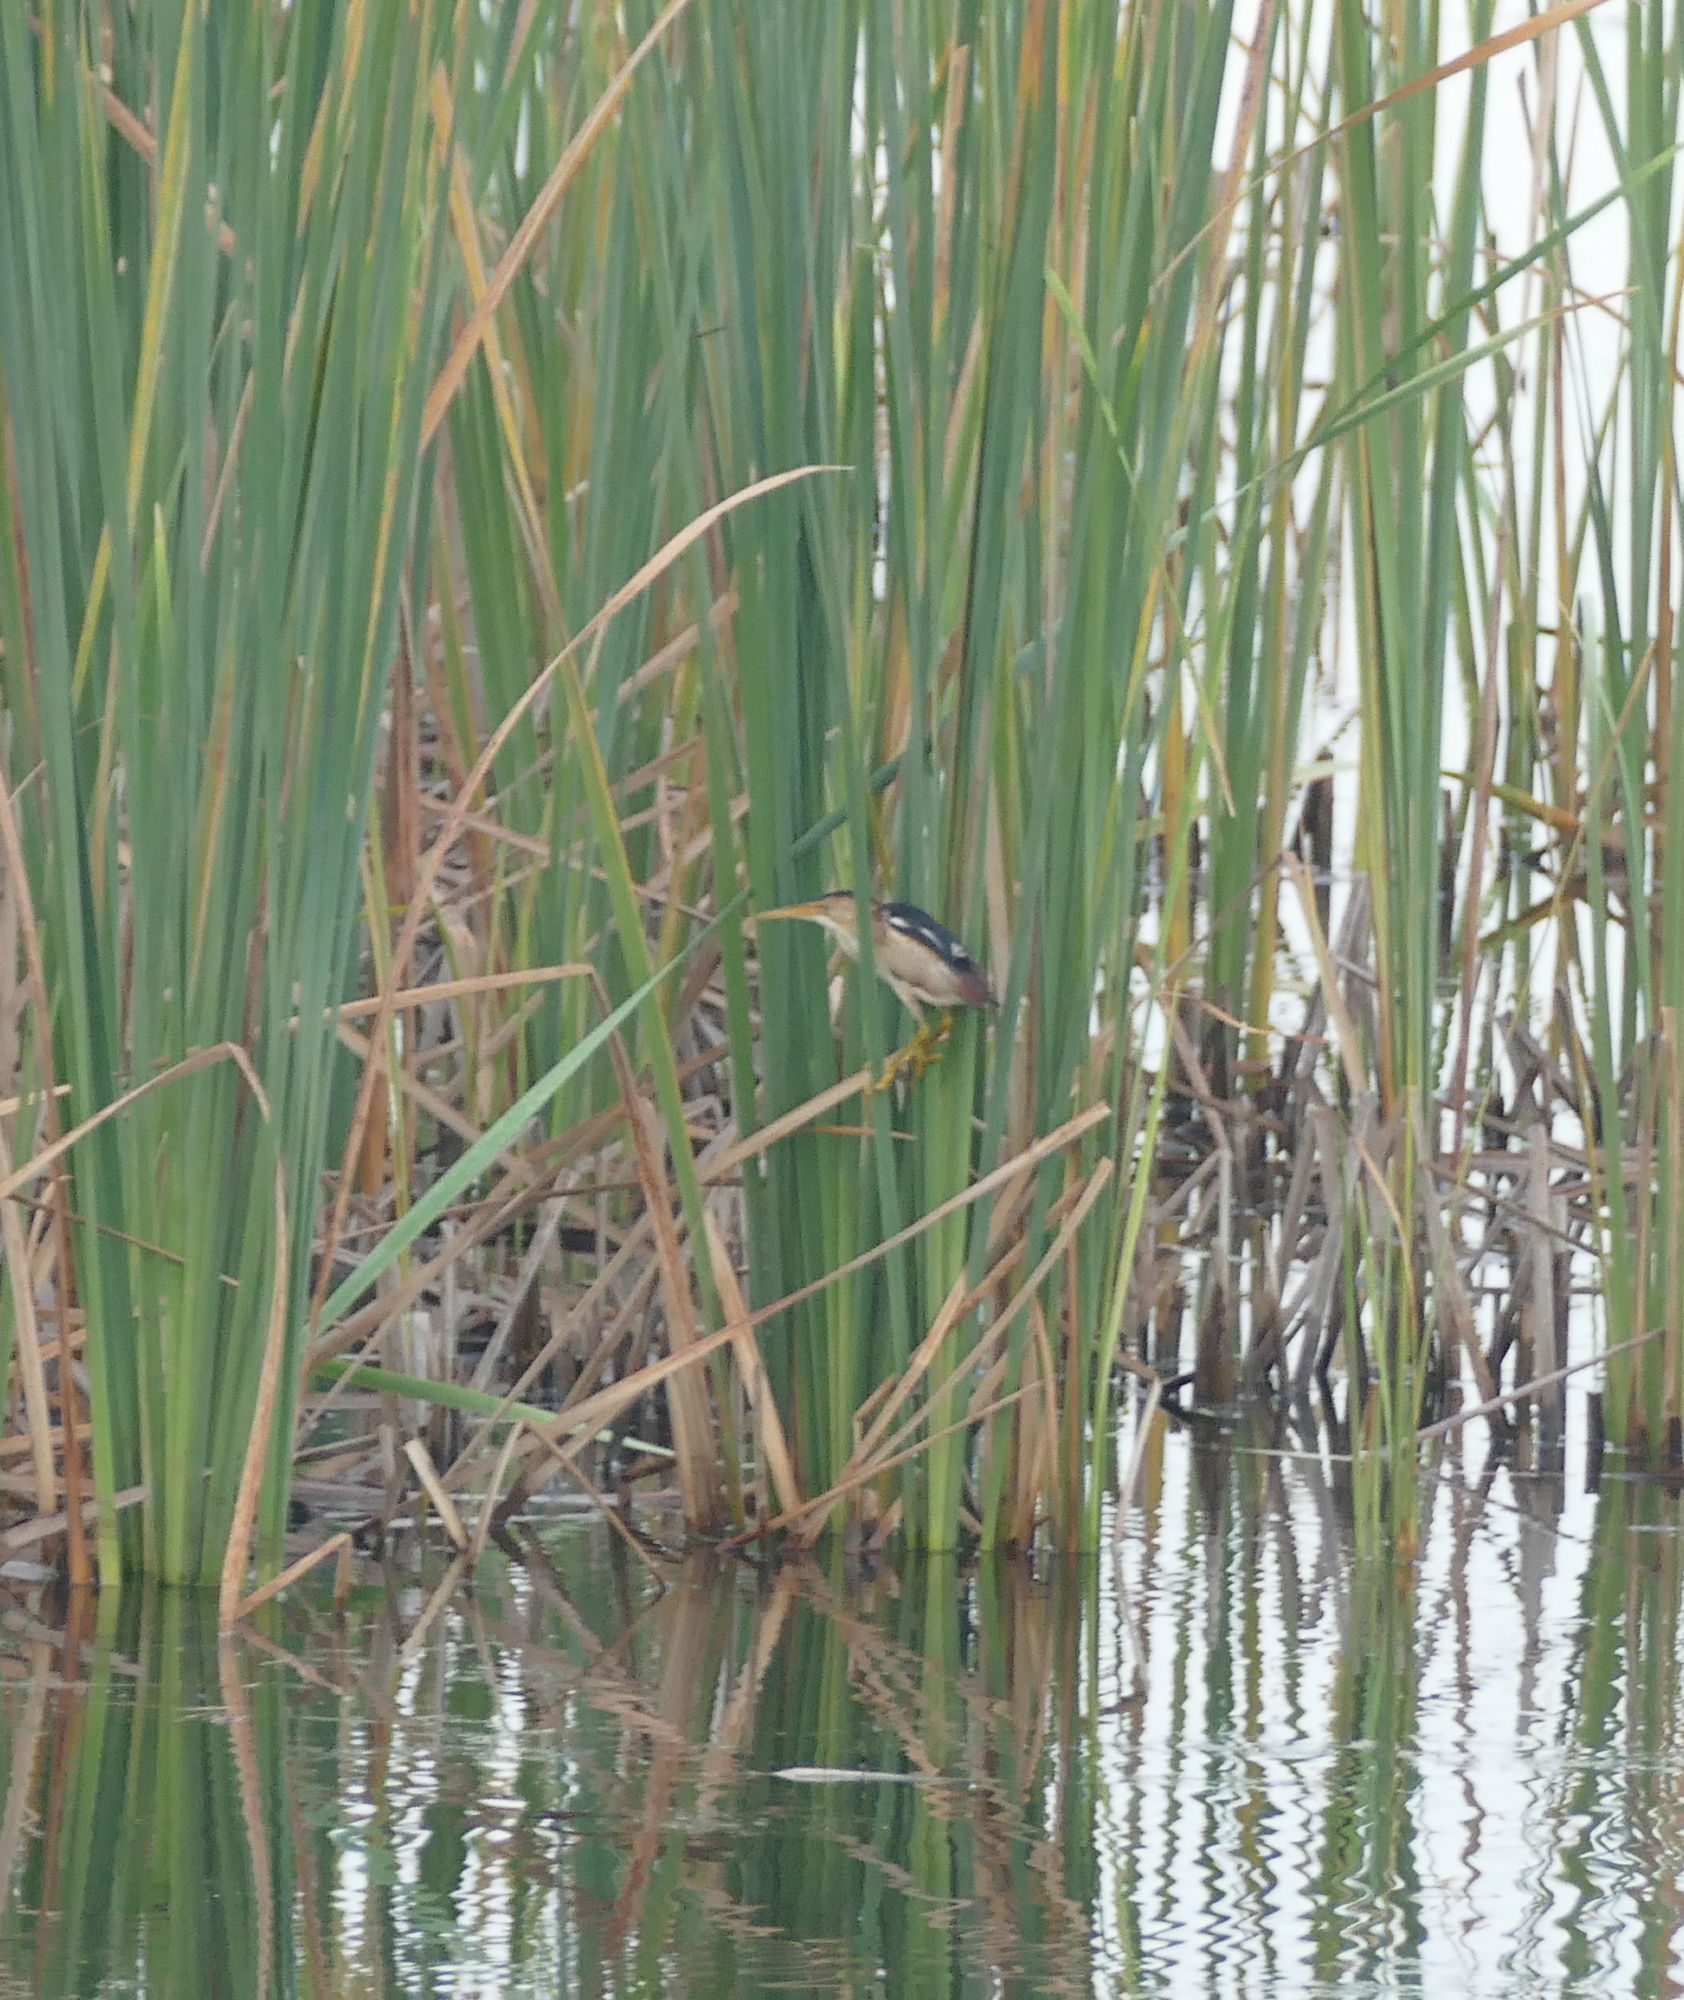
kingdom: Animalia
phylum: Chordata
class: Aves
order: Pelecaniformes
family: Ardeidae
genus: Ixobrychus
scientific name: Ixobrychus exilis
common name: Least bittern
